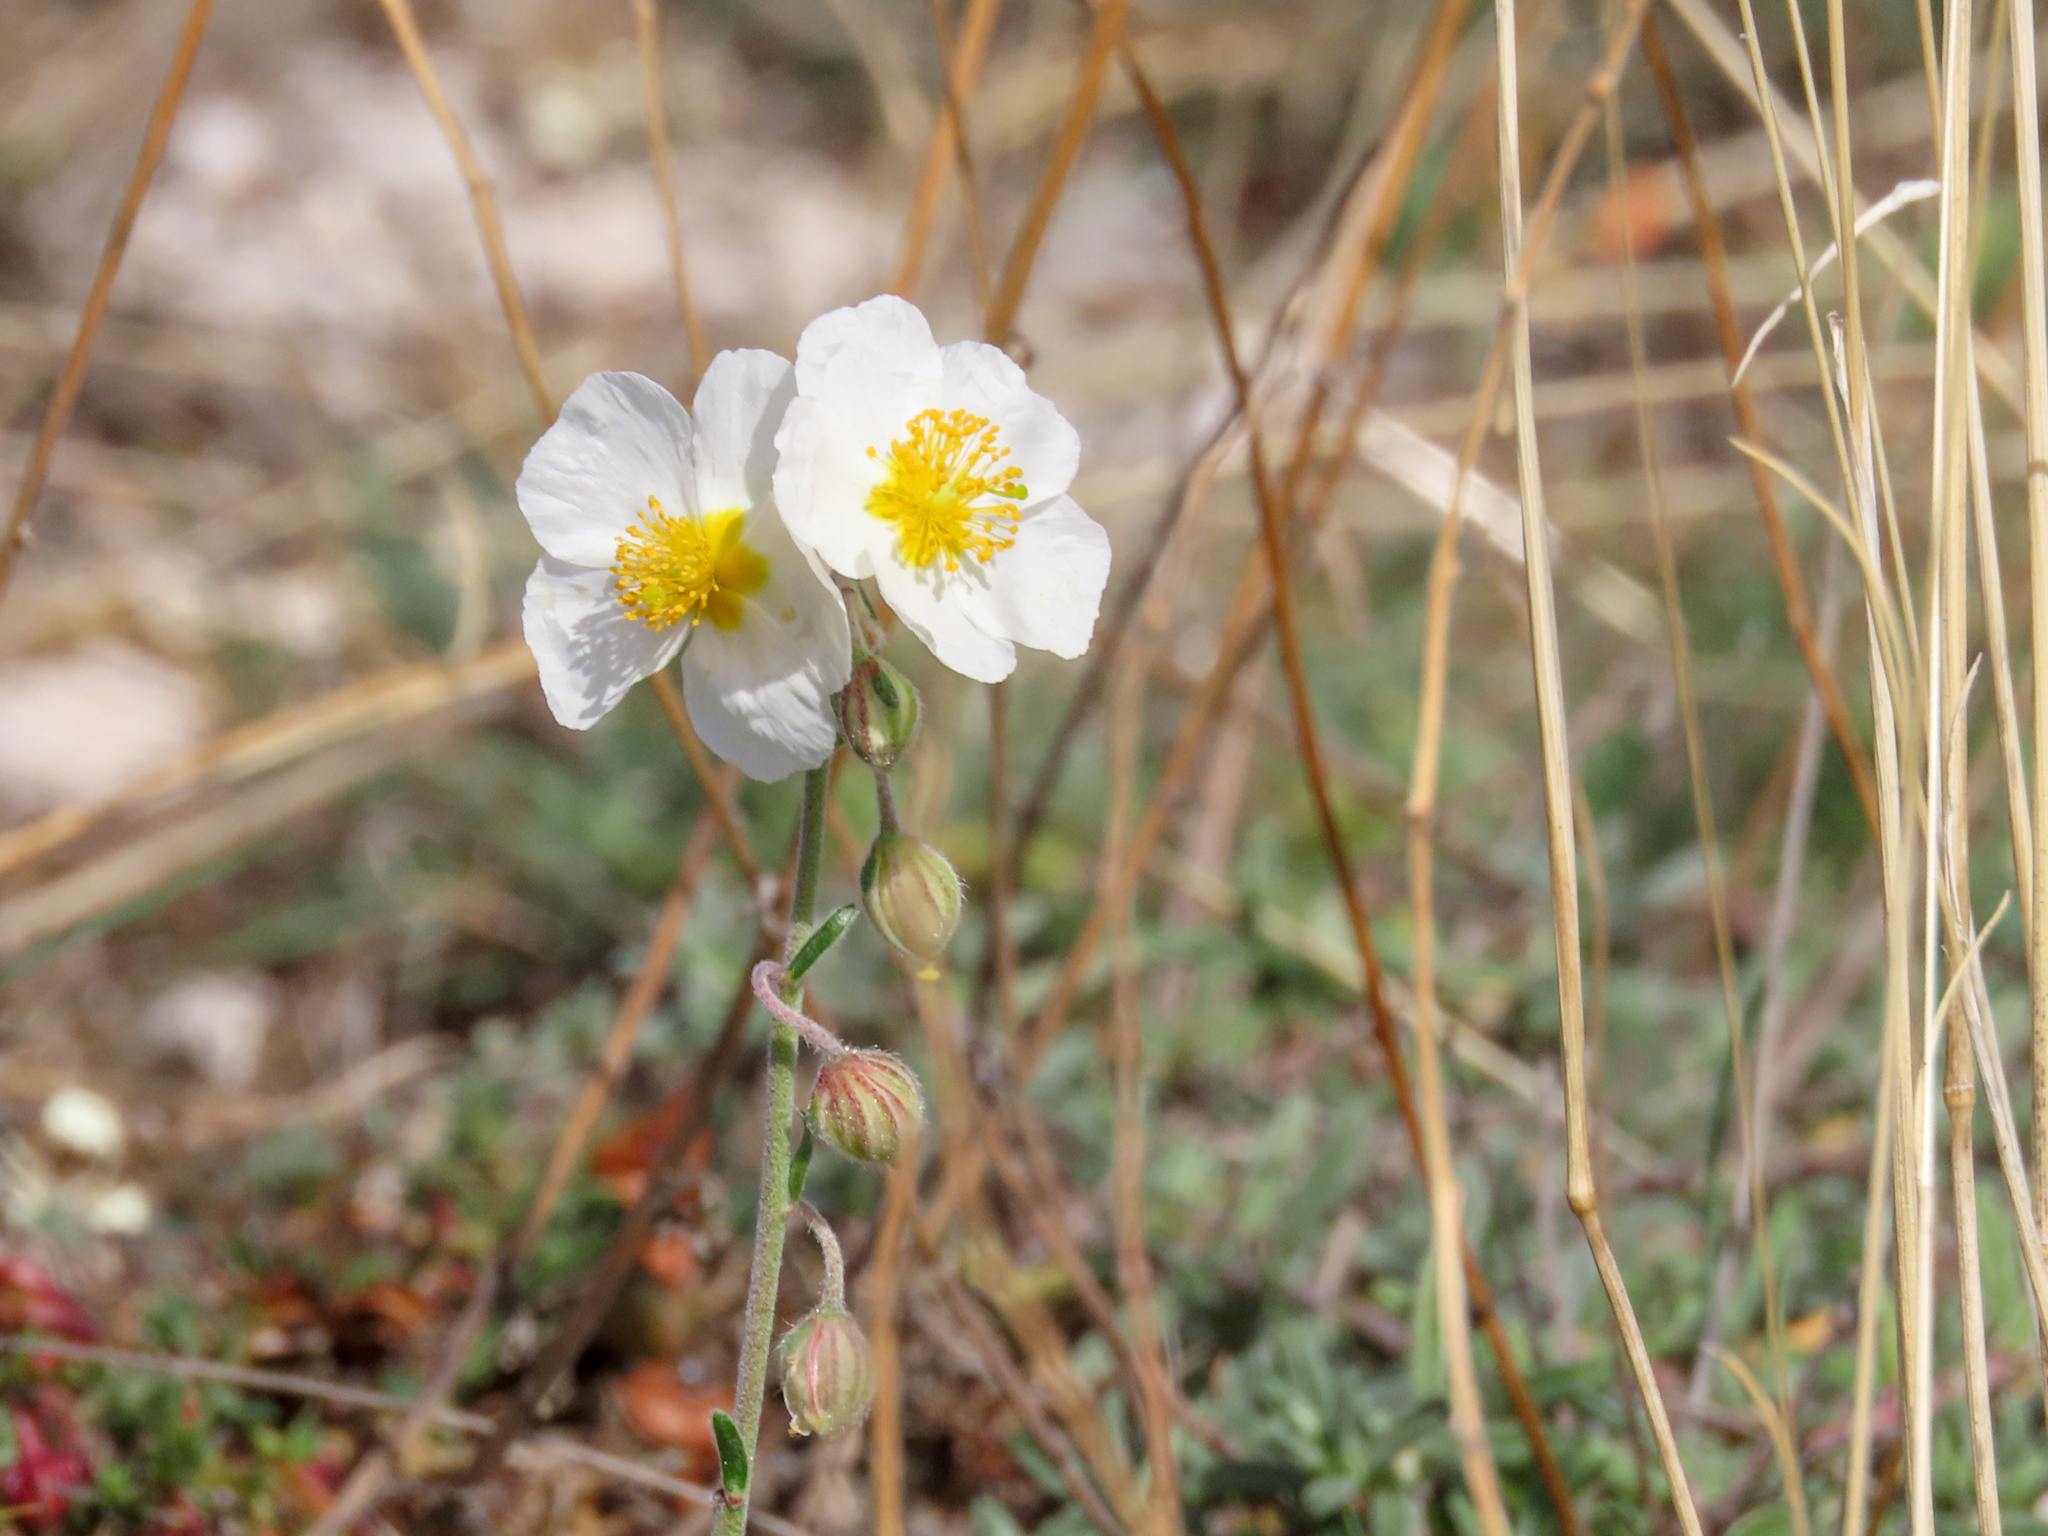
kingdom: Plantae
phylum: Tracheophyta
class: Magnoliopsida
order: Malvales
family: Cistaceae
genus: Helianthemum
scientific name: Helianthemum apenninum
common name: White rock-rose
